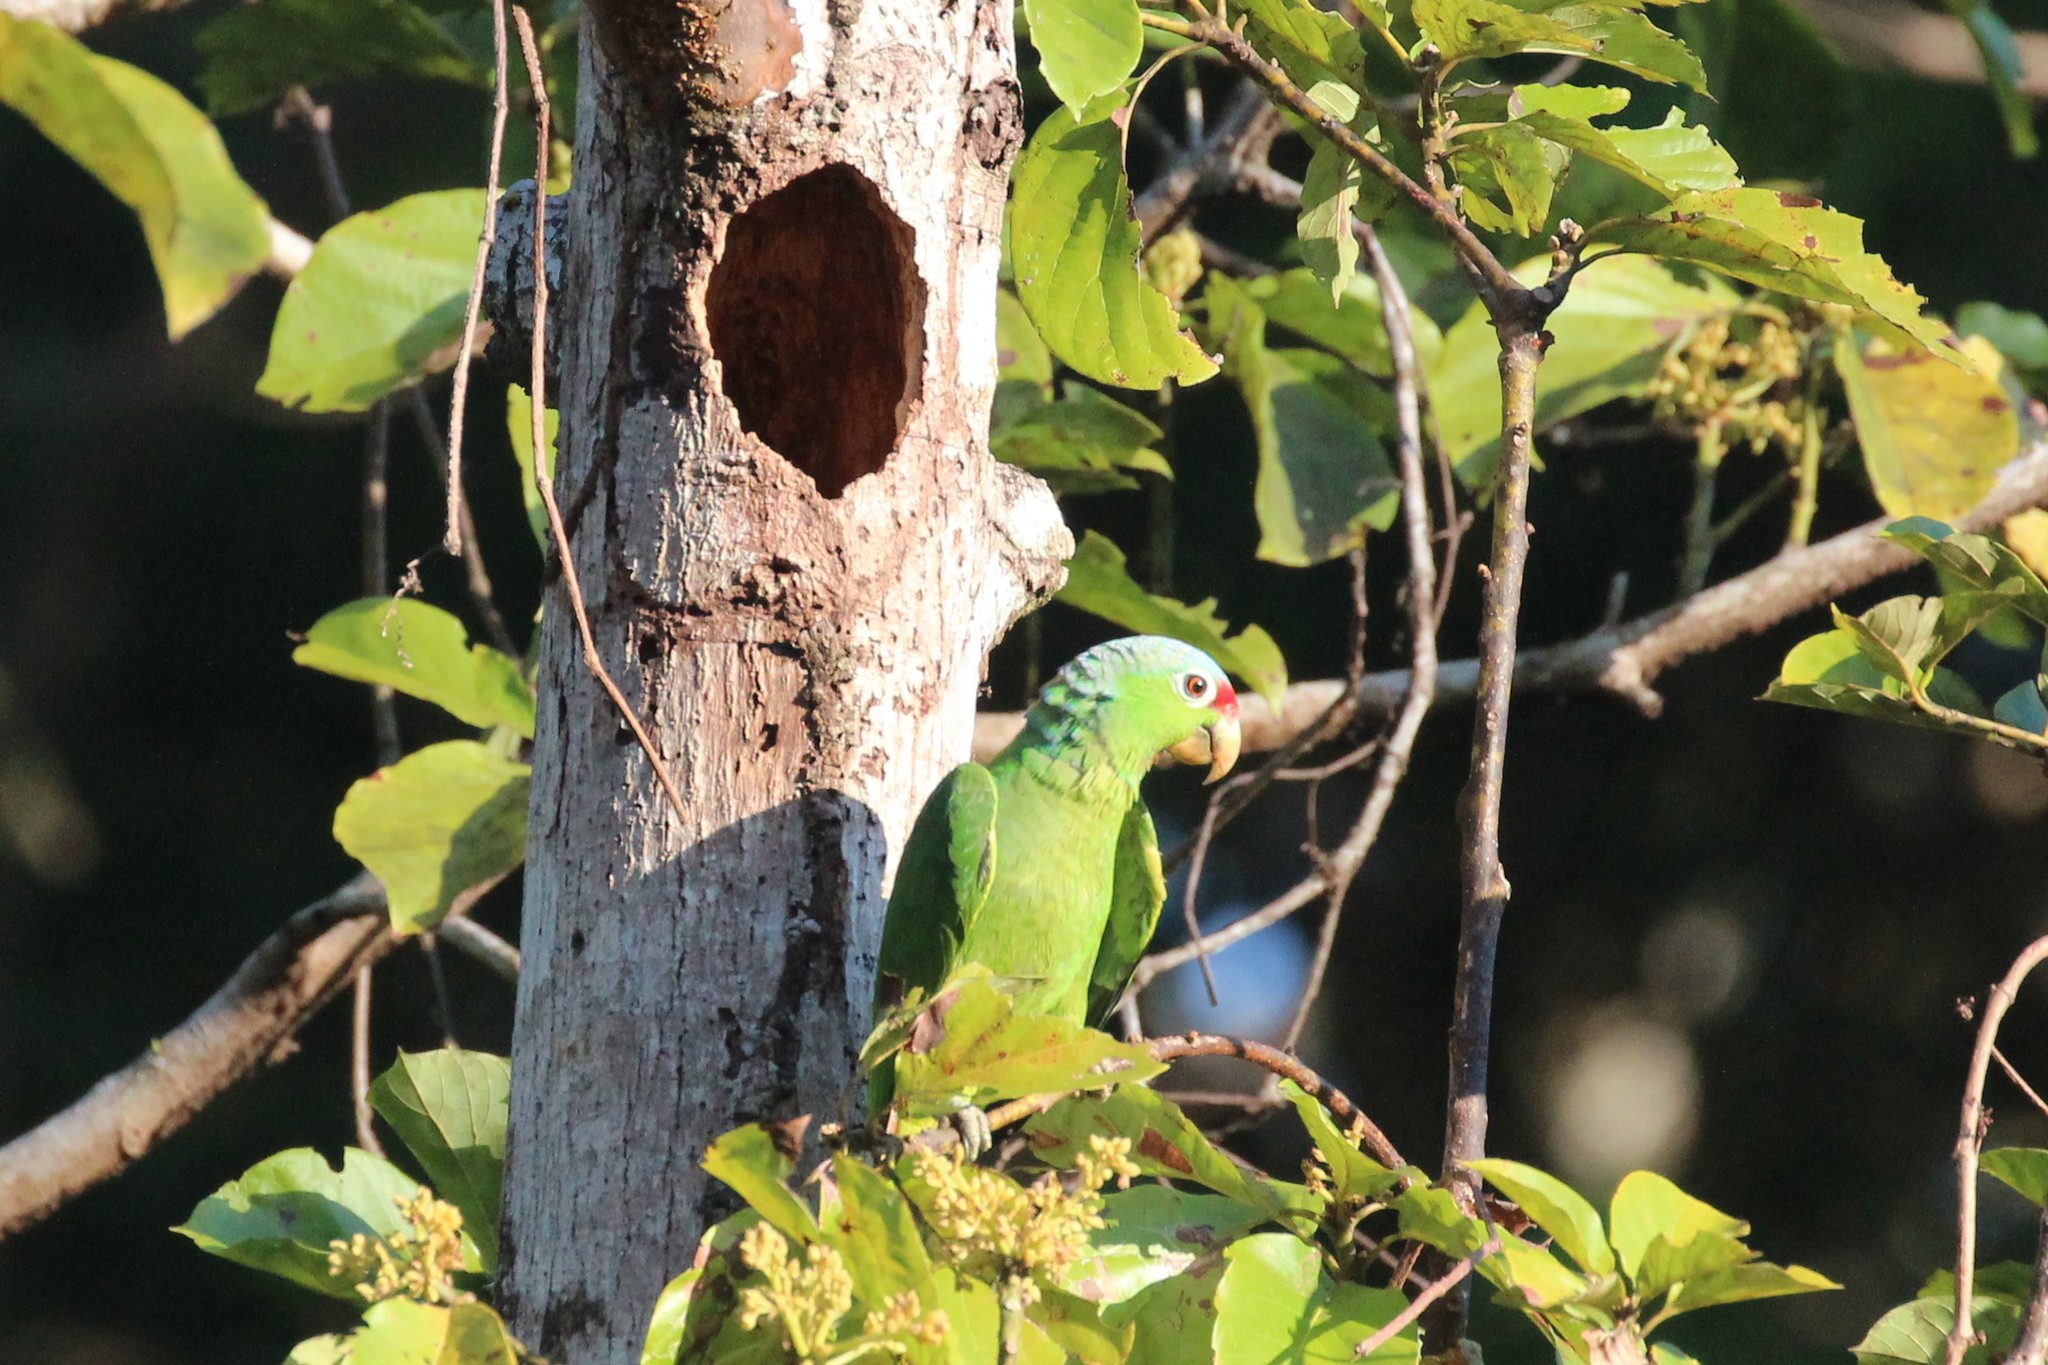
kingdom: Animalia
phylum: Chordata
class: Aves
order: Psittaciformes
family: Psittacidae
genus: Amazona
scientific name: Amazona autumnalis
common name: Red-lored amazon
